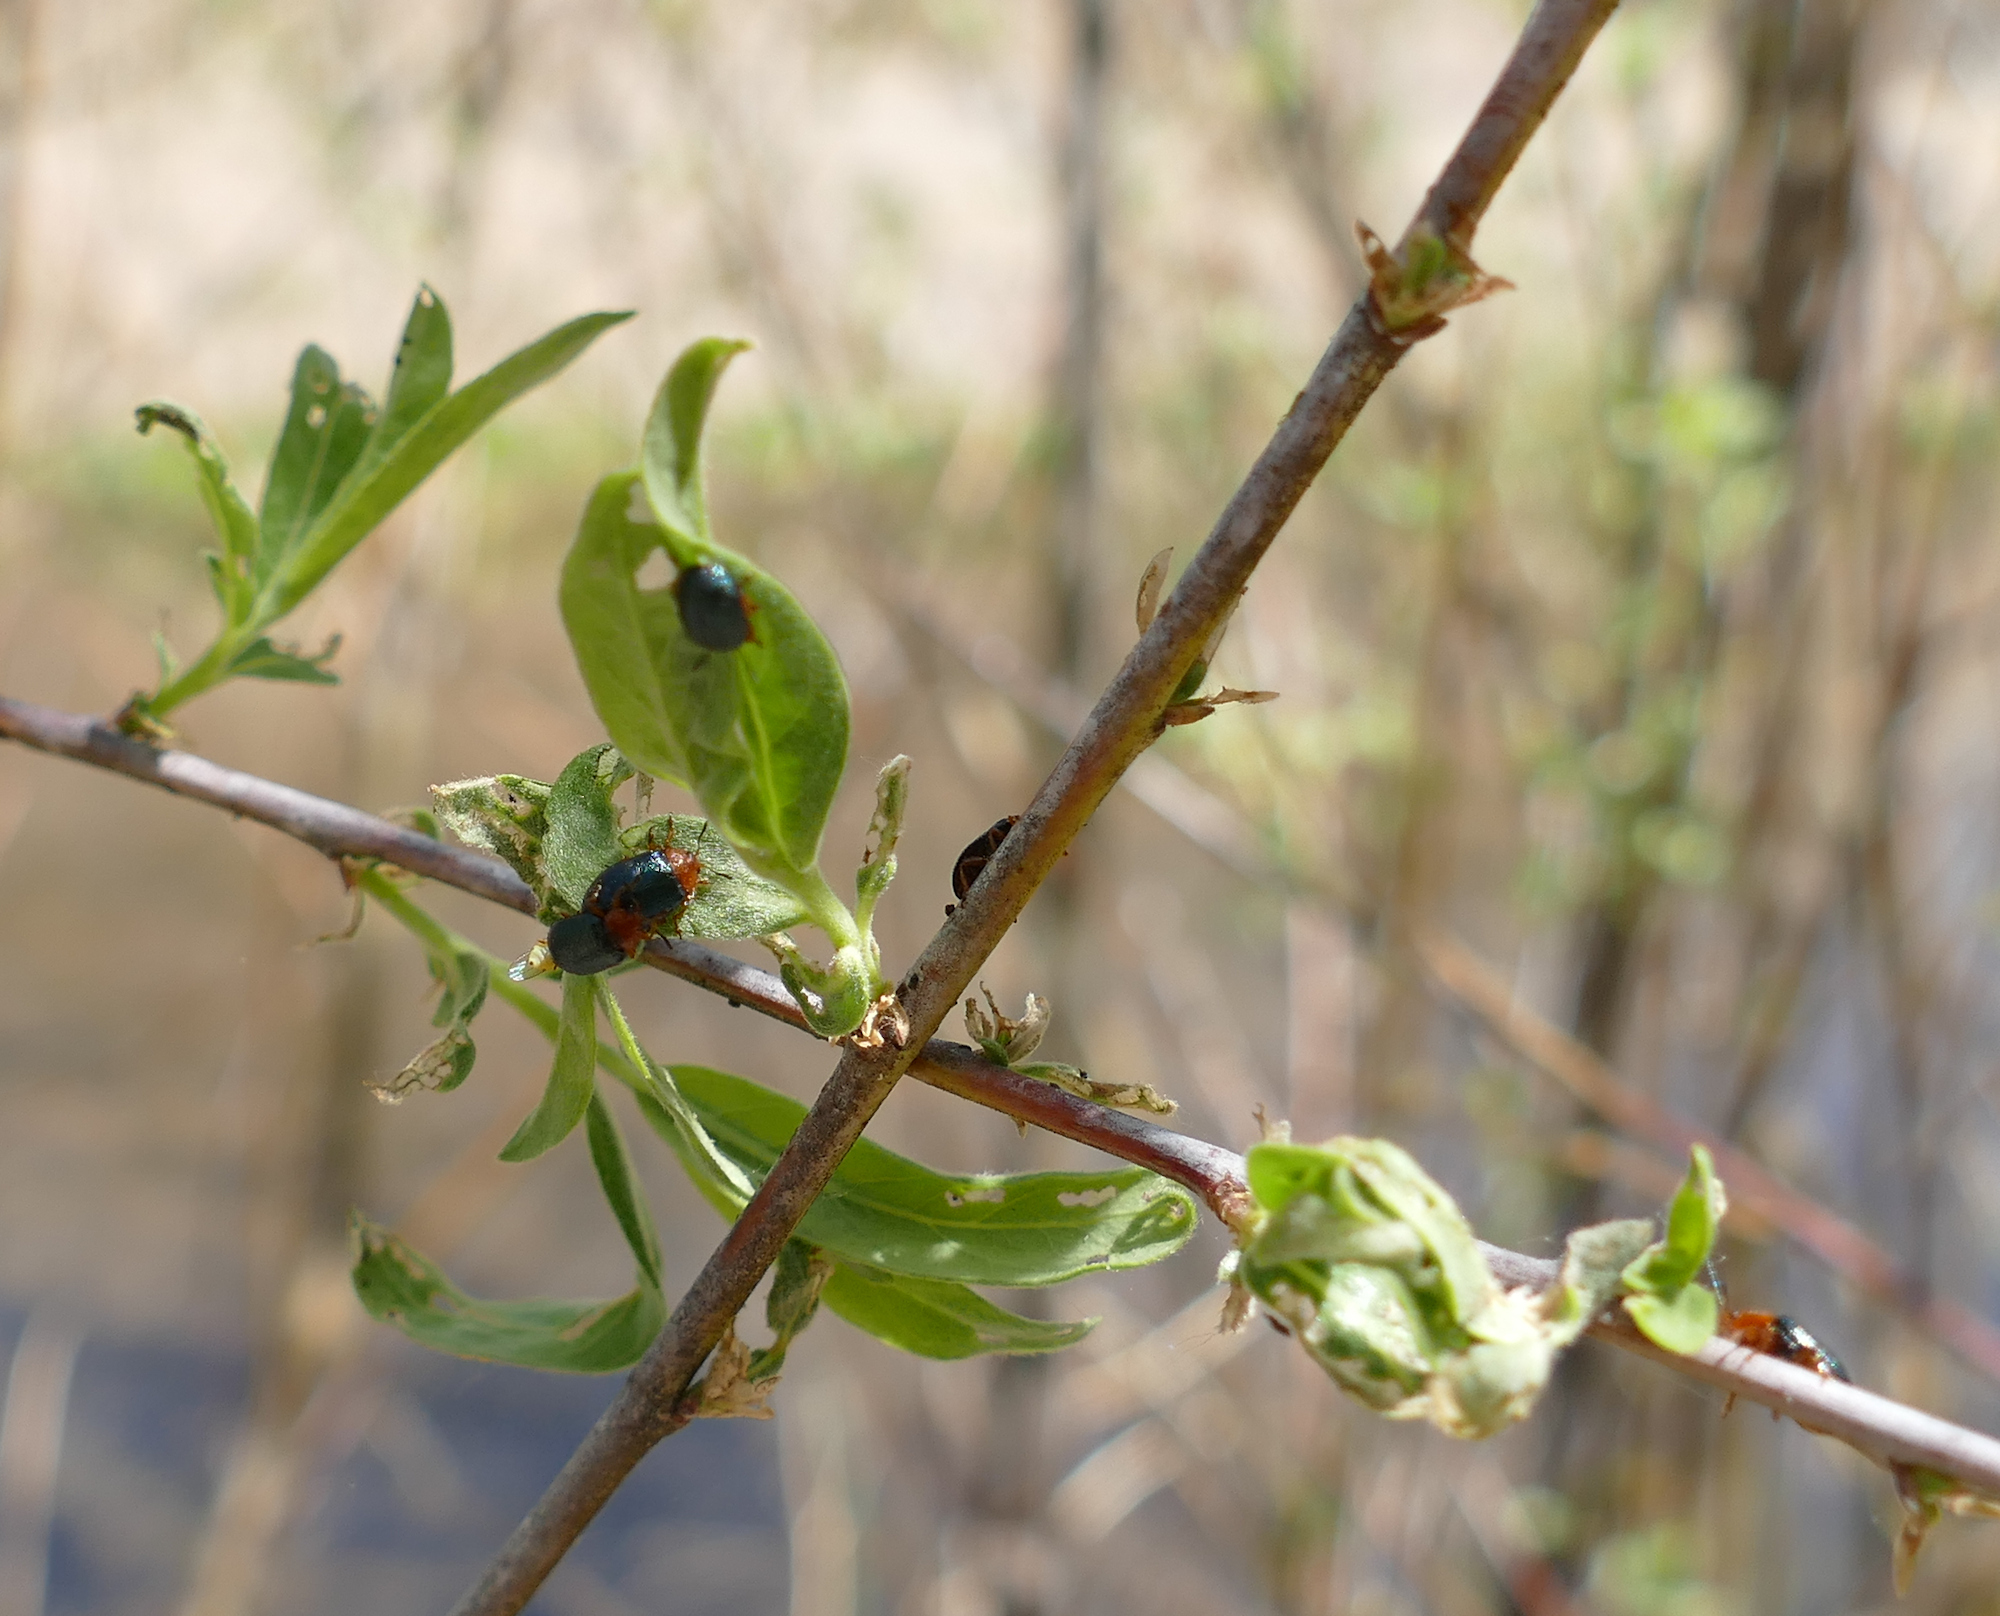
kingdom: Animalia
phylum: Arthropoda
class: Insecta
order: Coleoptera
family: Chrysomelidae
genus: Plagiodera
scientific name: Plagiodera arizonae
